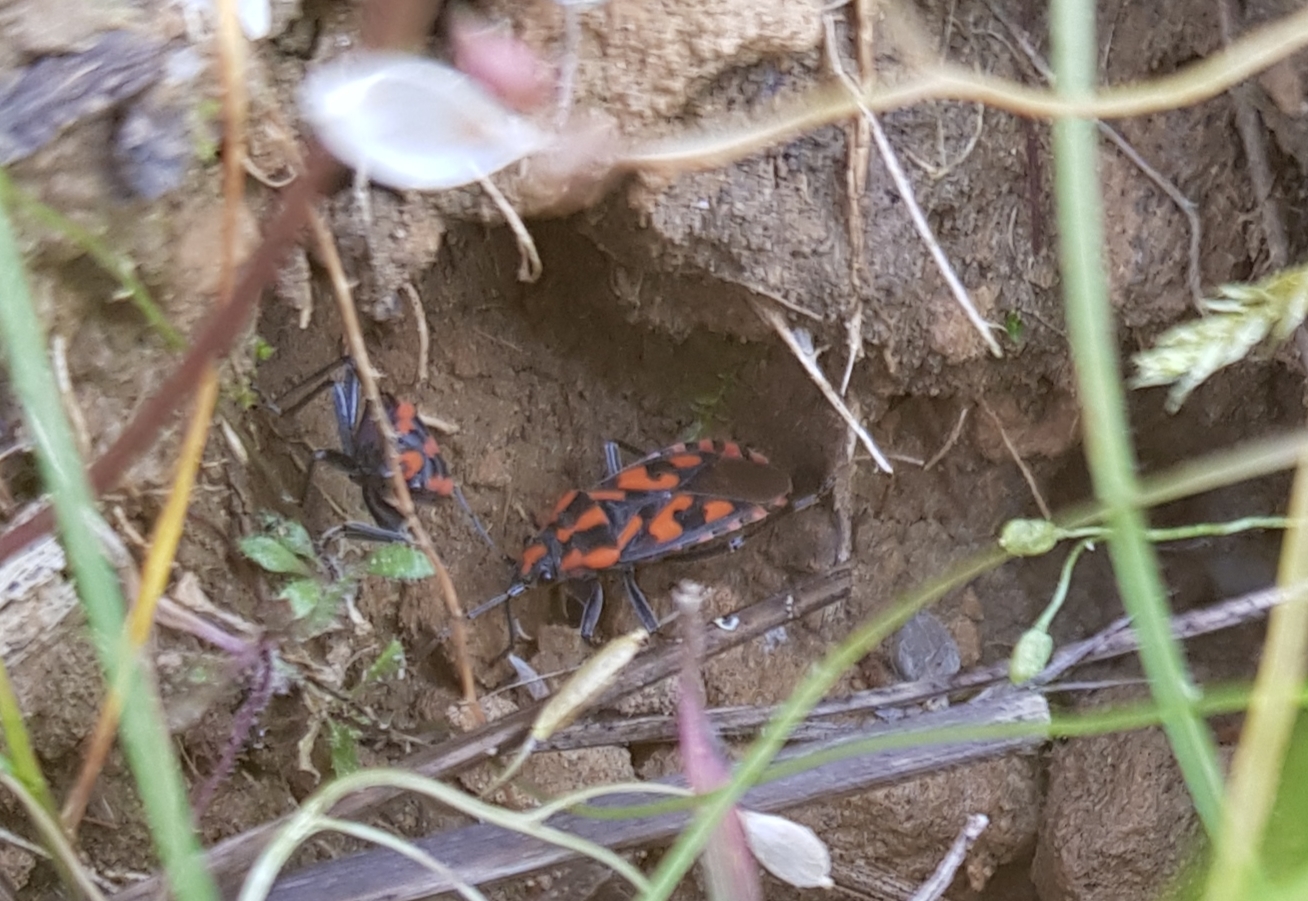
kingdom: Animalia
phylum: Arthropoda
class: Insecta
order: Hemiptera
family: Lygaeidae
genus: Spilostethus
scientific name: Spilostethus saxatilis
